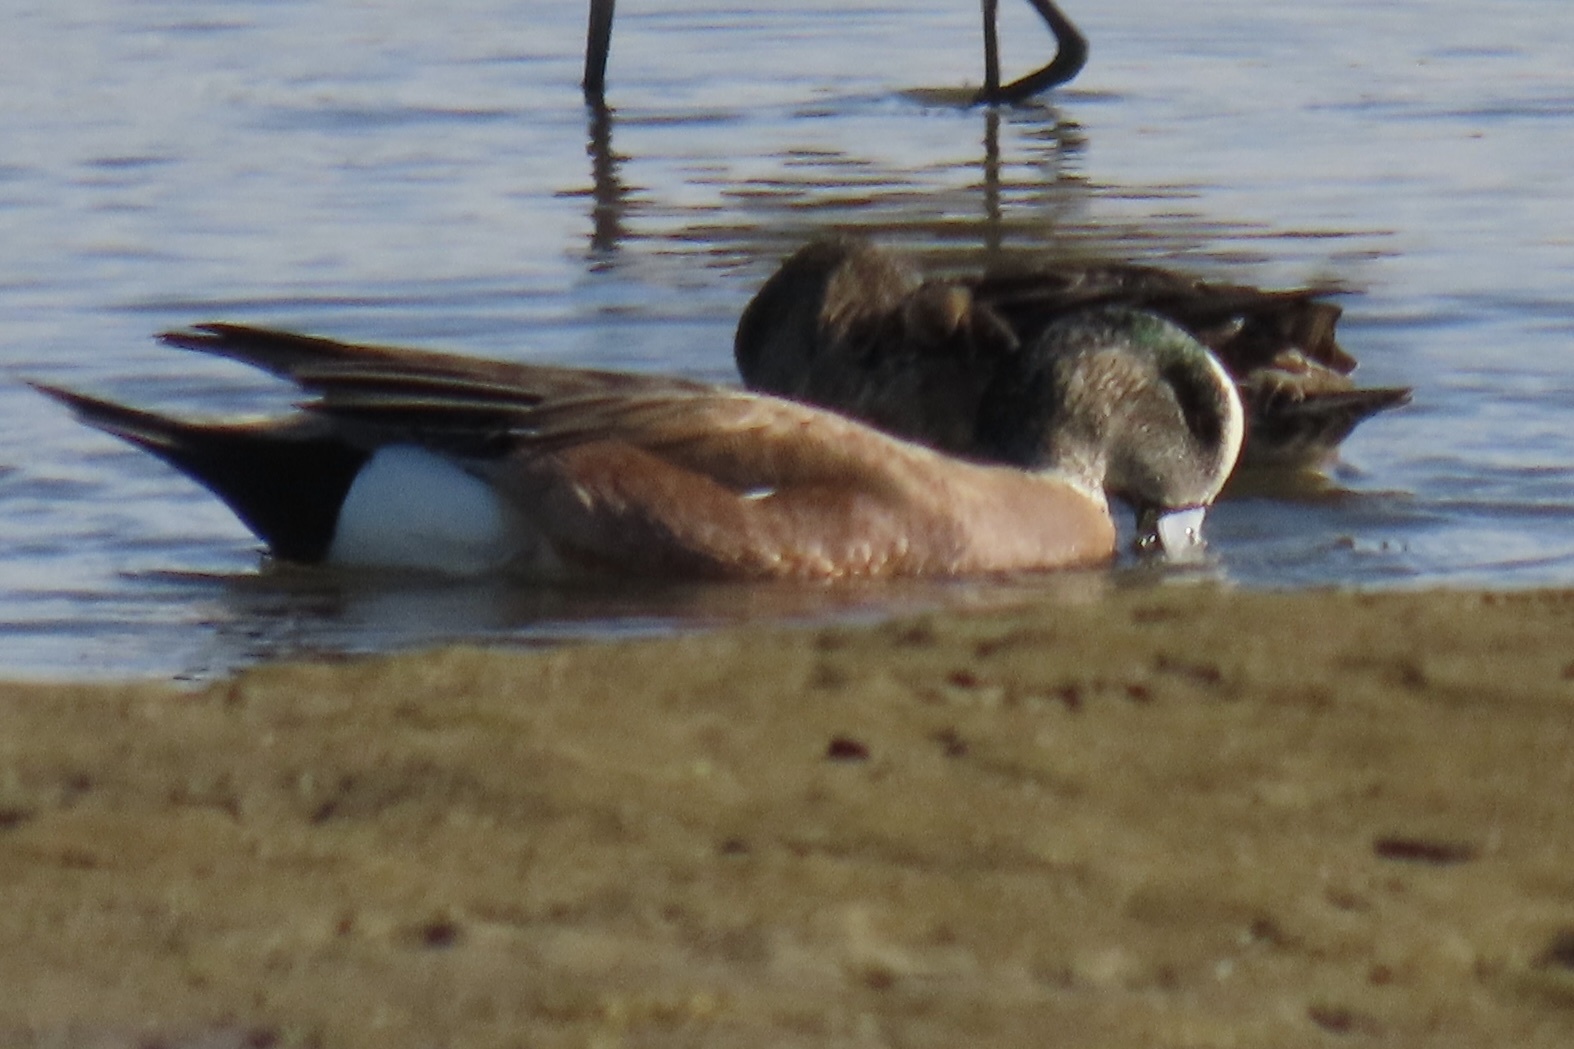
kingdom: Animalia
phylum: Chordata
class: Aves
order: Anseriformes
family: Anatidae
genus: Mareca
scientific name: Mareca americana
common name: American wigeon
